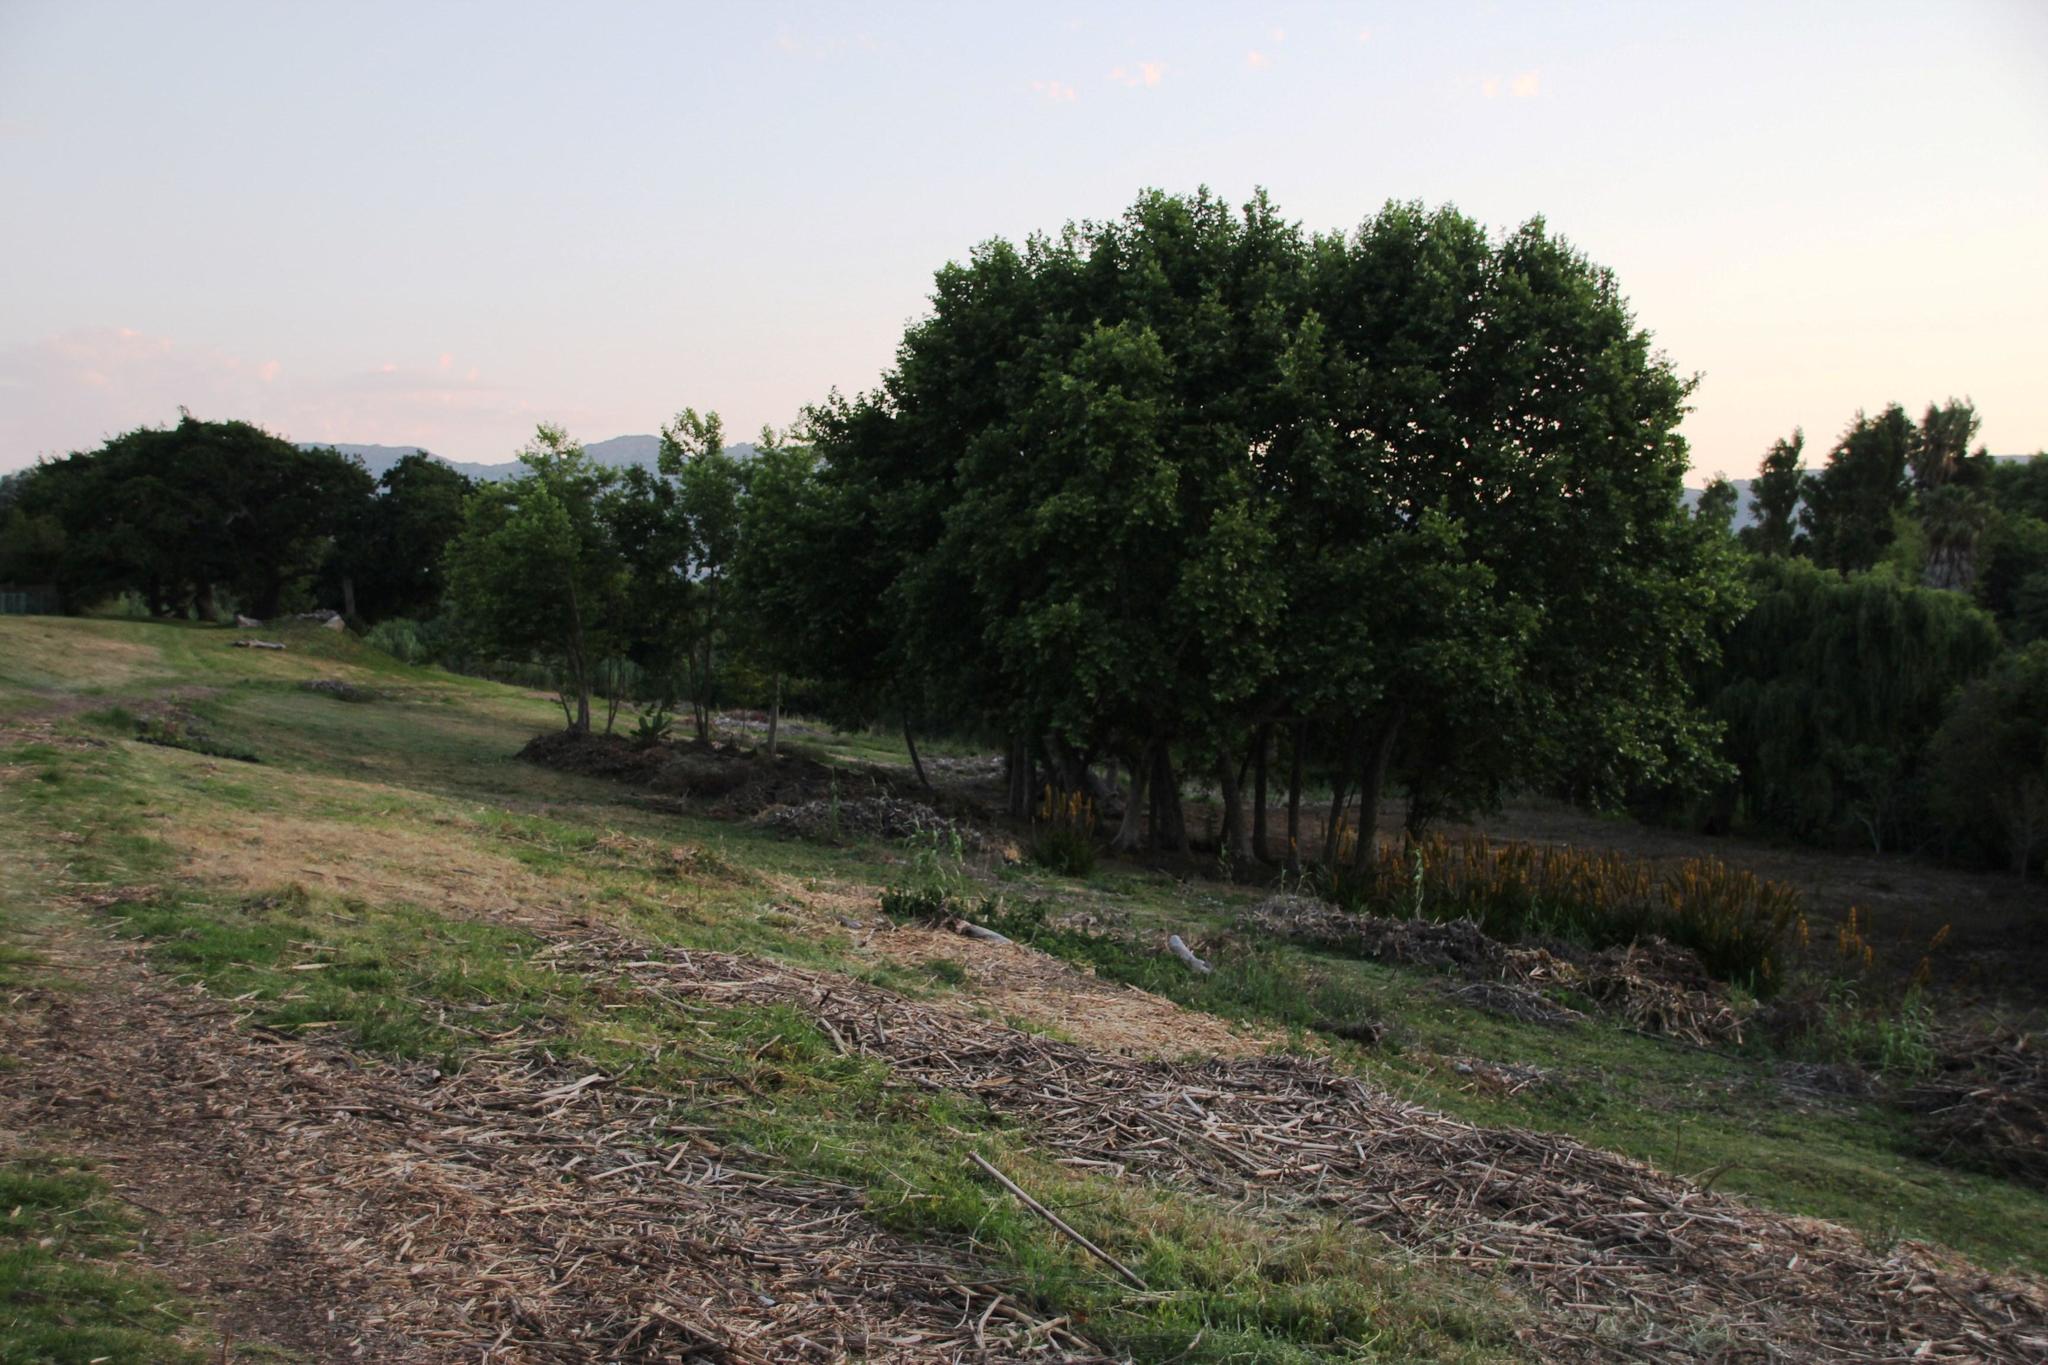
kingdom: Plantae
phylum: Tracheophyta
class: Magnoliopsida
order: Malpighiales
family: Salicaceae
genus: Populus
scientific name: Populus canescens
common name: Gray poplar
